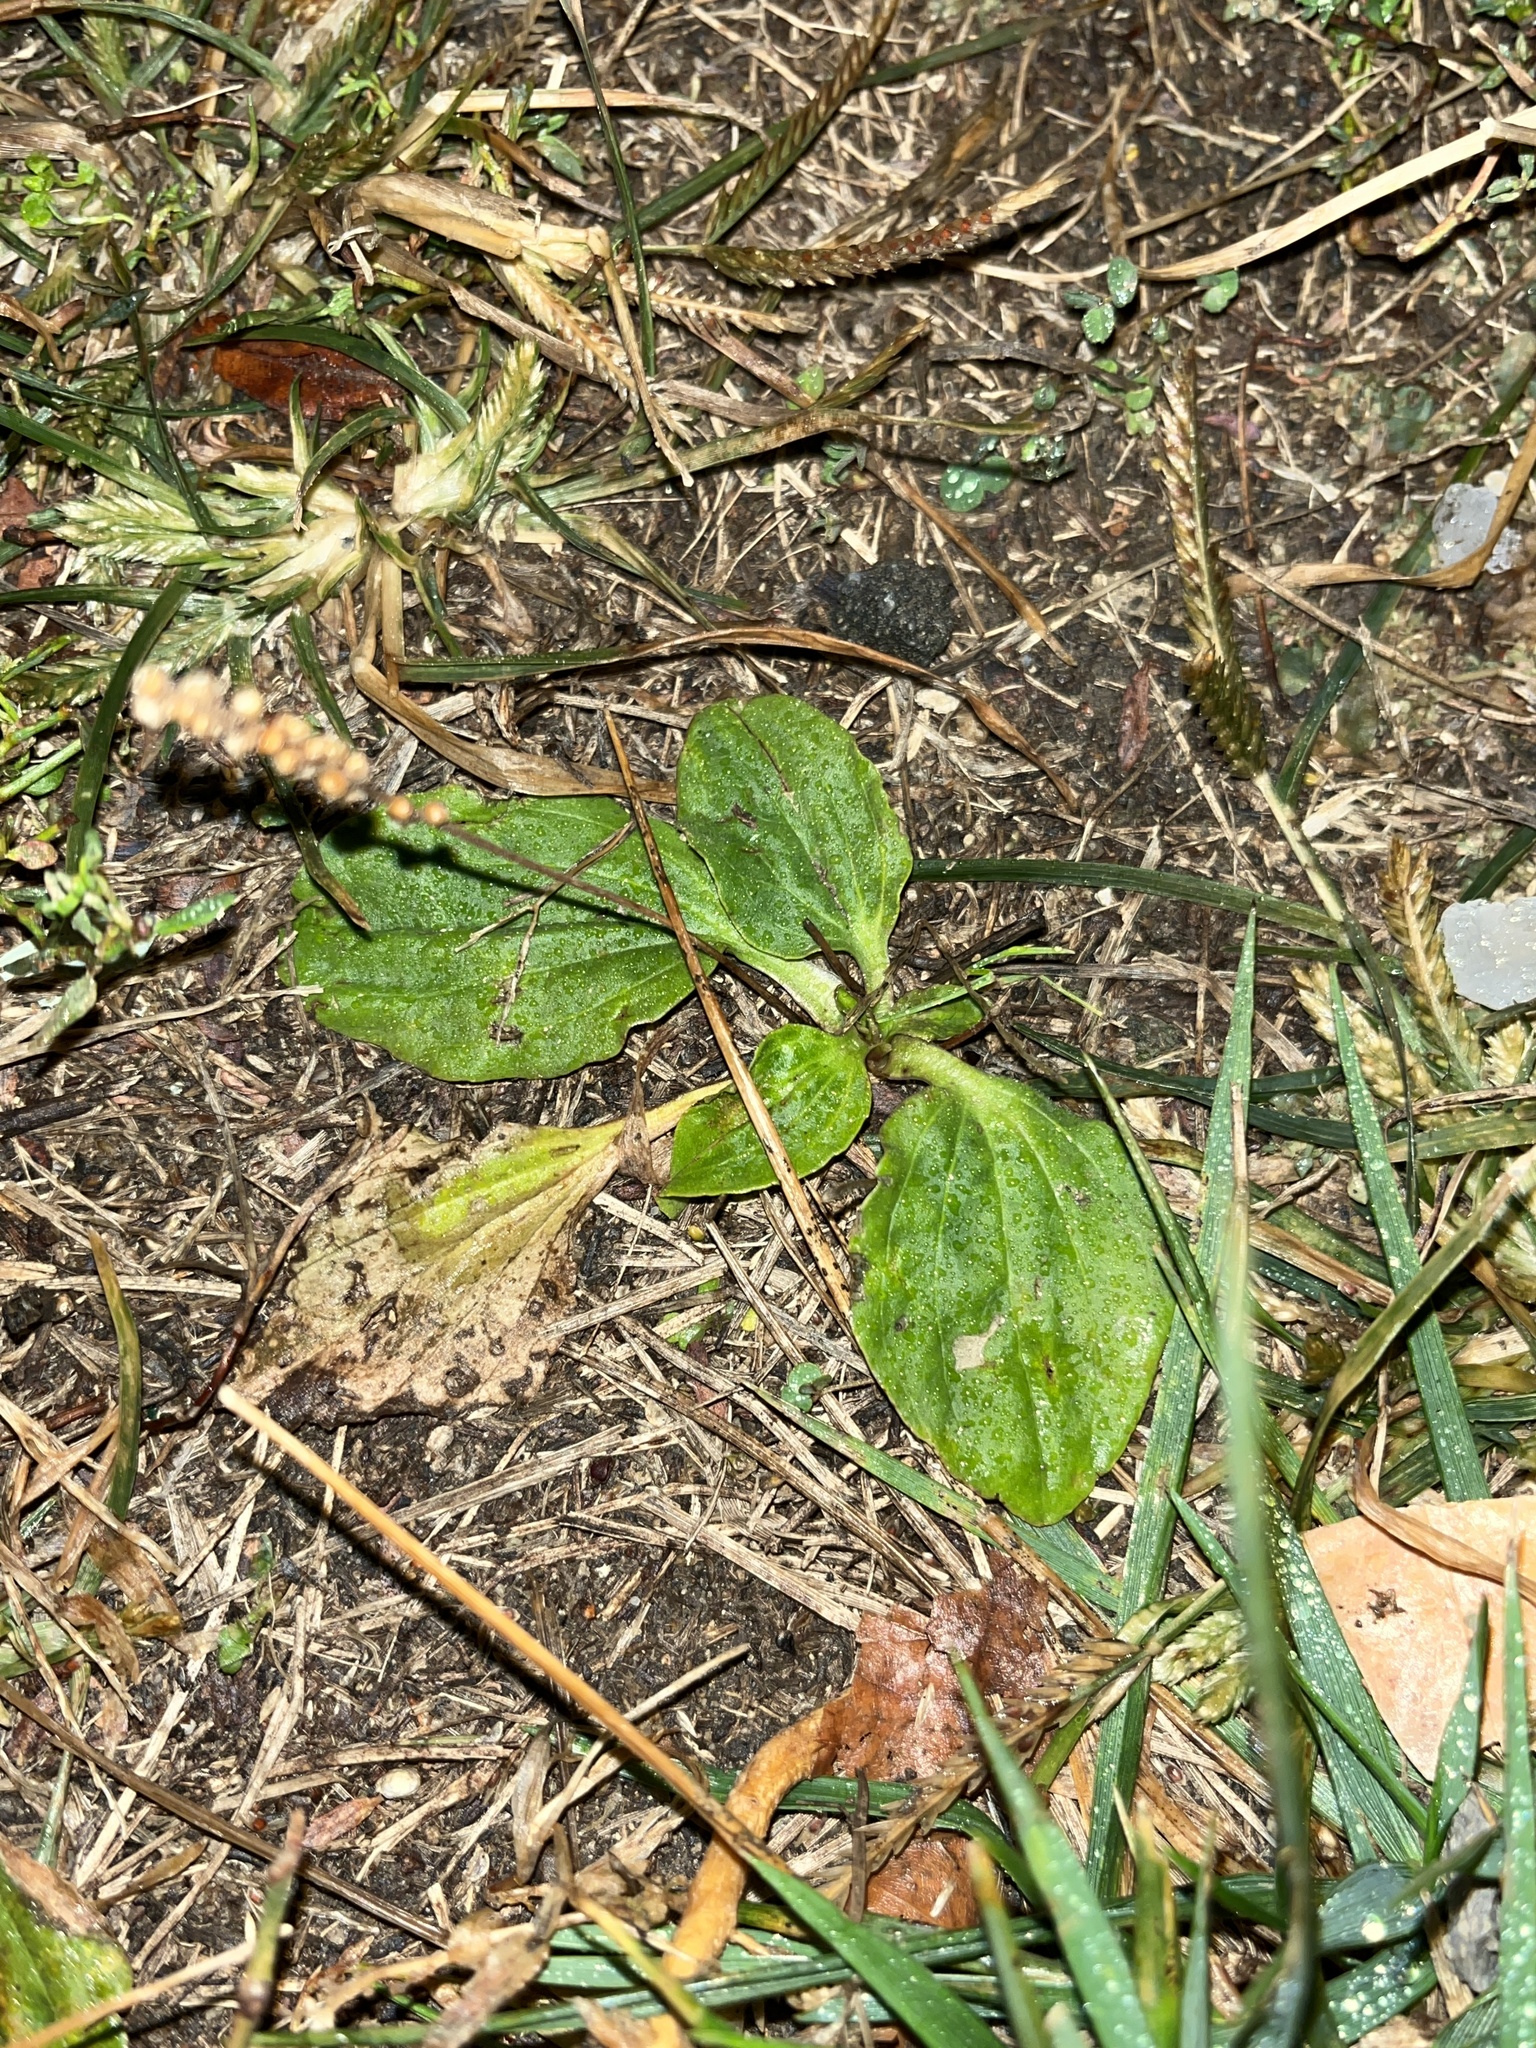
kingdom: Plantae
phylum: Tracheophyta
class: Magnoliopsida
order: Lamiales
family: Plantaginaceae
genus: Plantago
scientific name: Plantago major
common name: Common plantain
